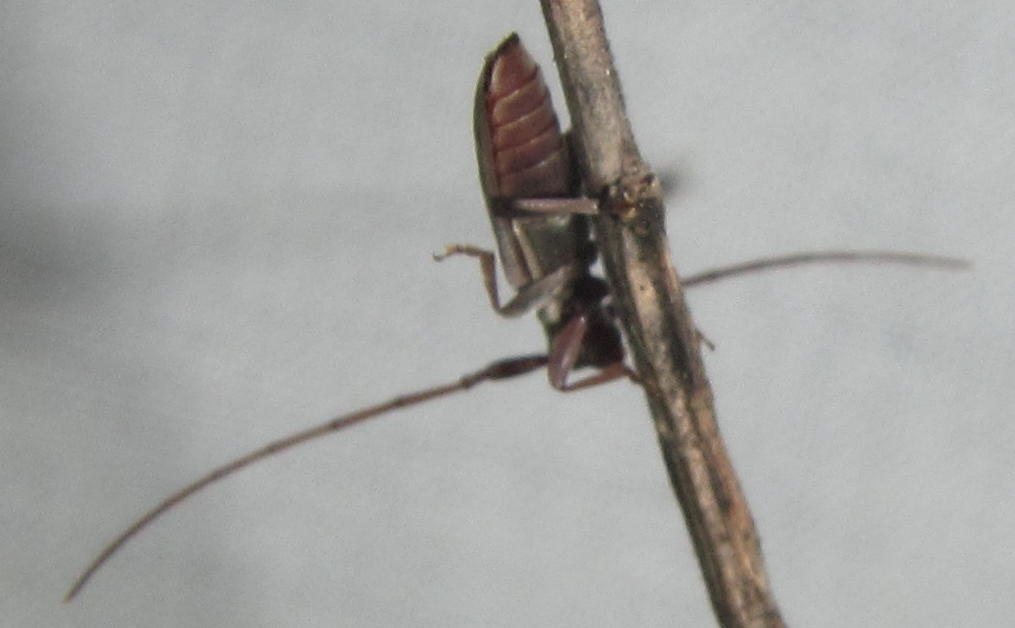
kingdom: Animalia
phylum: Arthropoda
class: Insecta
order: Coleoptera
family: Cerambycidae
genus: Eunidia
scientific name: Eunidia strigata
